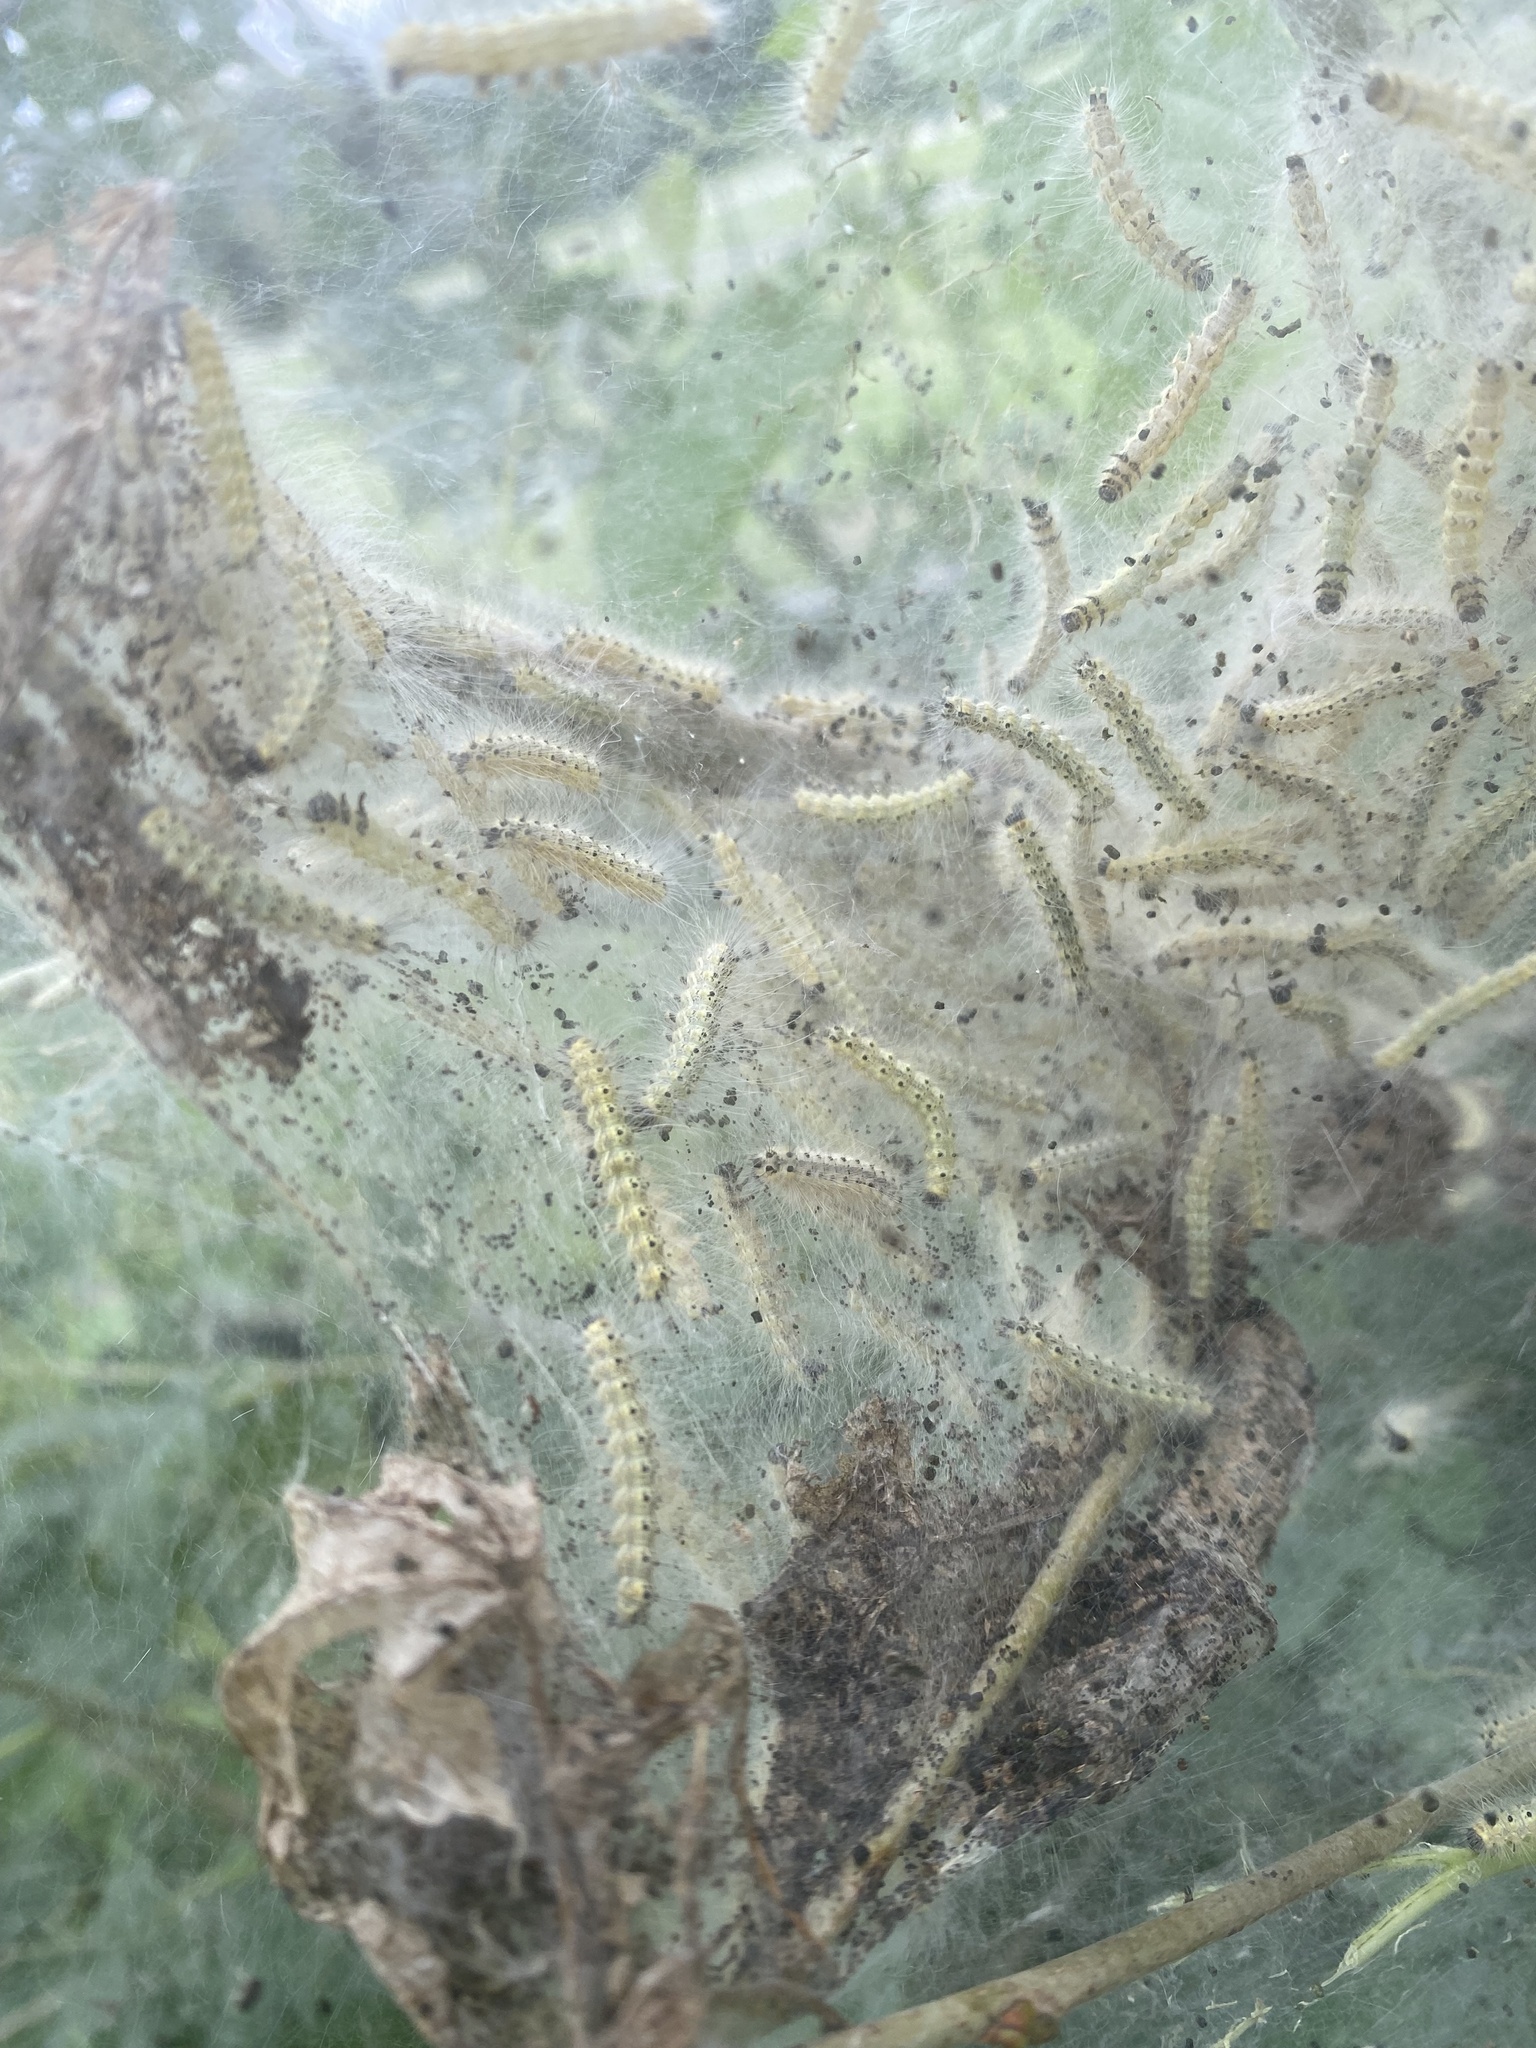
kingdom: Animalia
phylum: Arthropoda
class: Insecta
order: Lepidoptera
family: Erebidae
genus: Hyphantria
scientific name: Hyphantria cunea
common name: American white moth
